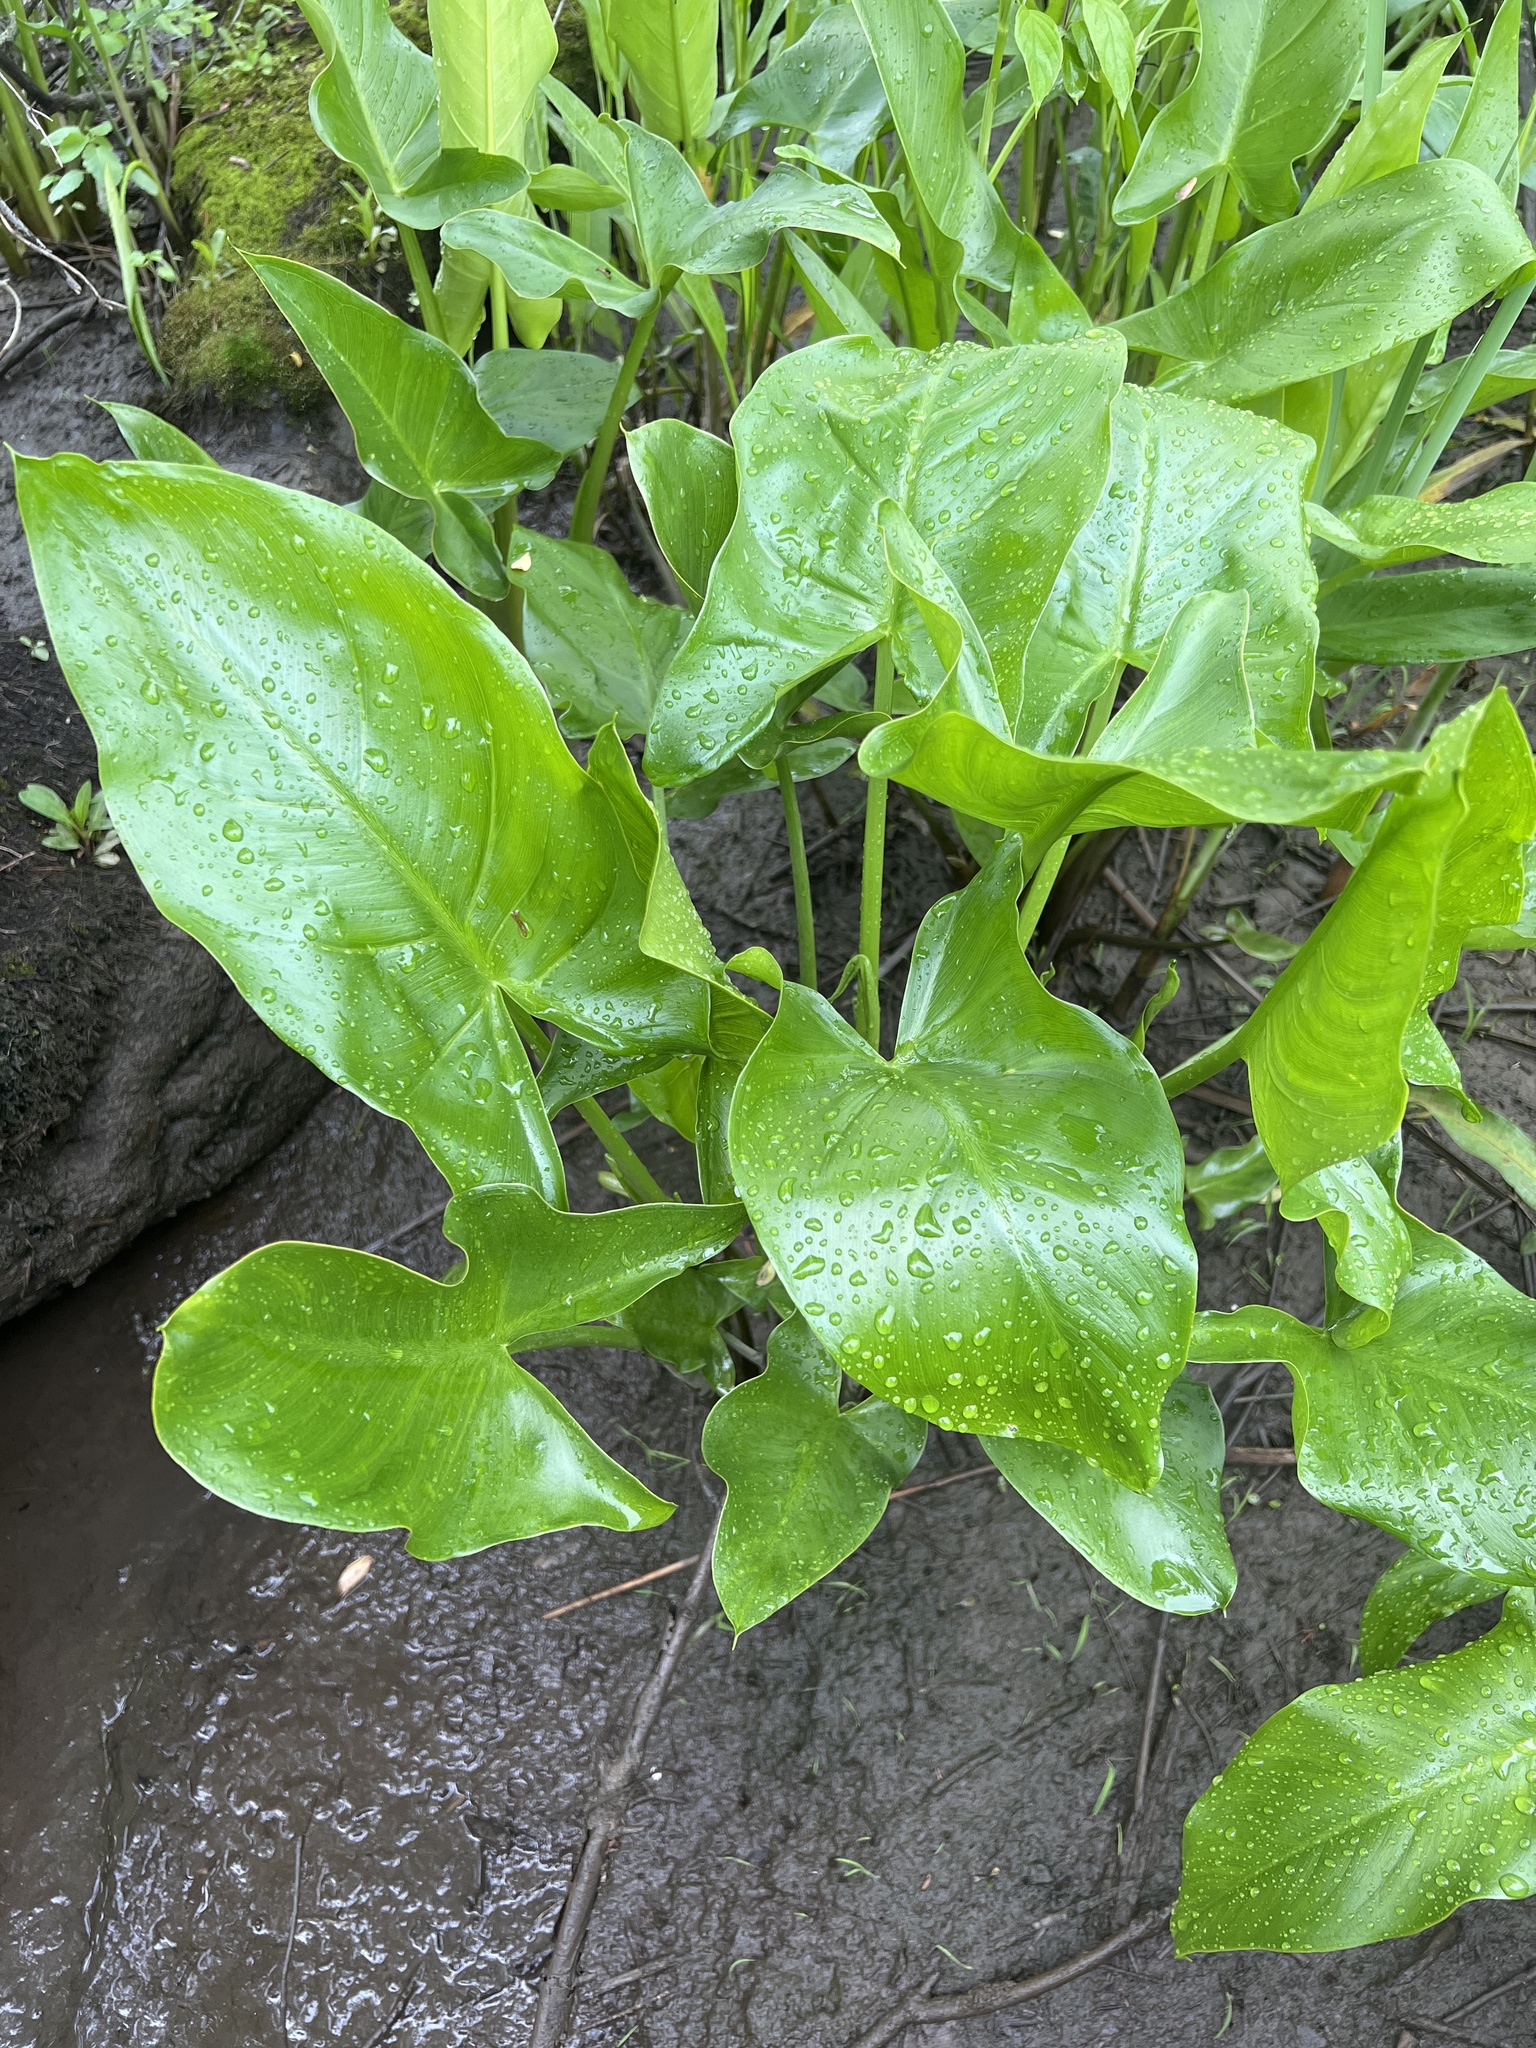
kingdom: Plantae
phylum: Tracheophyta
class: Liliopsida
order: Alismatales
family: Araceae
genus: Peltandra
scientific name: Peltandra virginica
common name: Arrow arum
